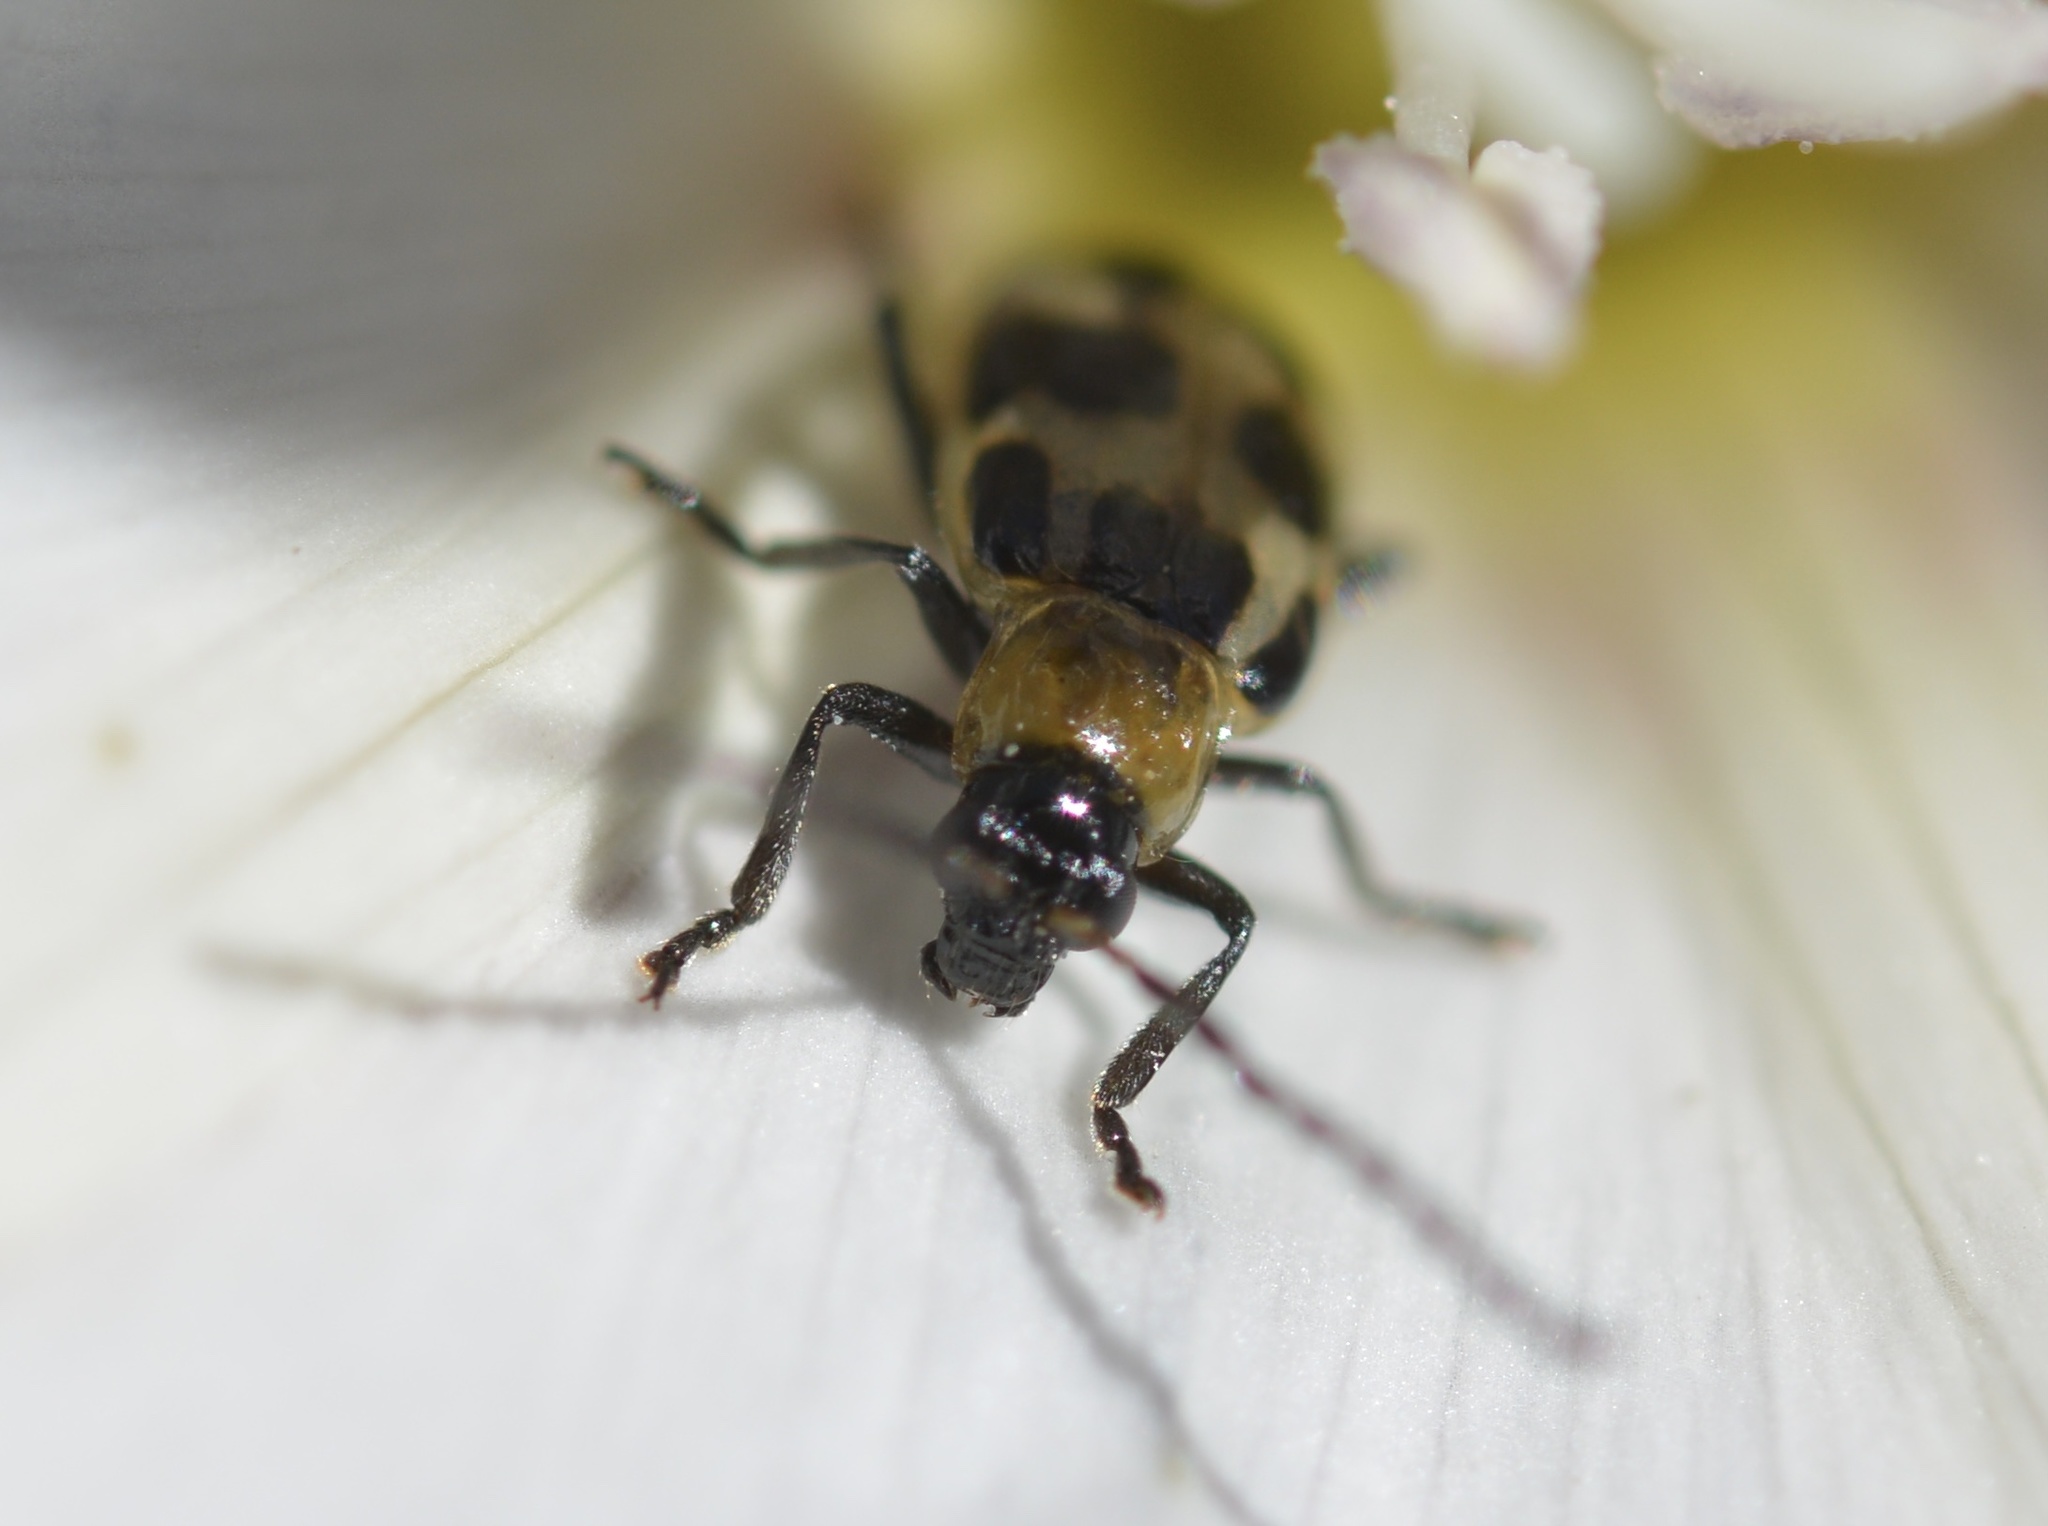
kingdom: Animalia
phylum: Arthropoda
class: Insecta
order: Coleoptera
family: Chrysomelidae
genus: Diabrotica
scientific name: Diabrotica undecimpunctata
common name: Spotted cucumber beetle
